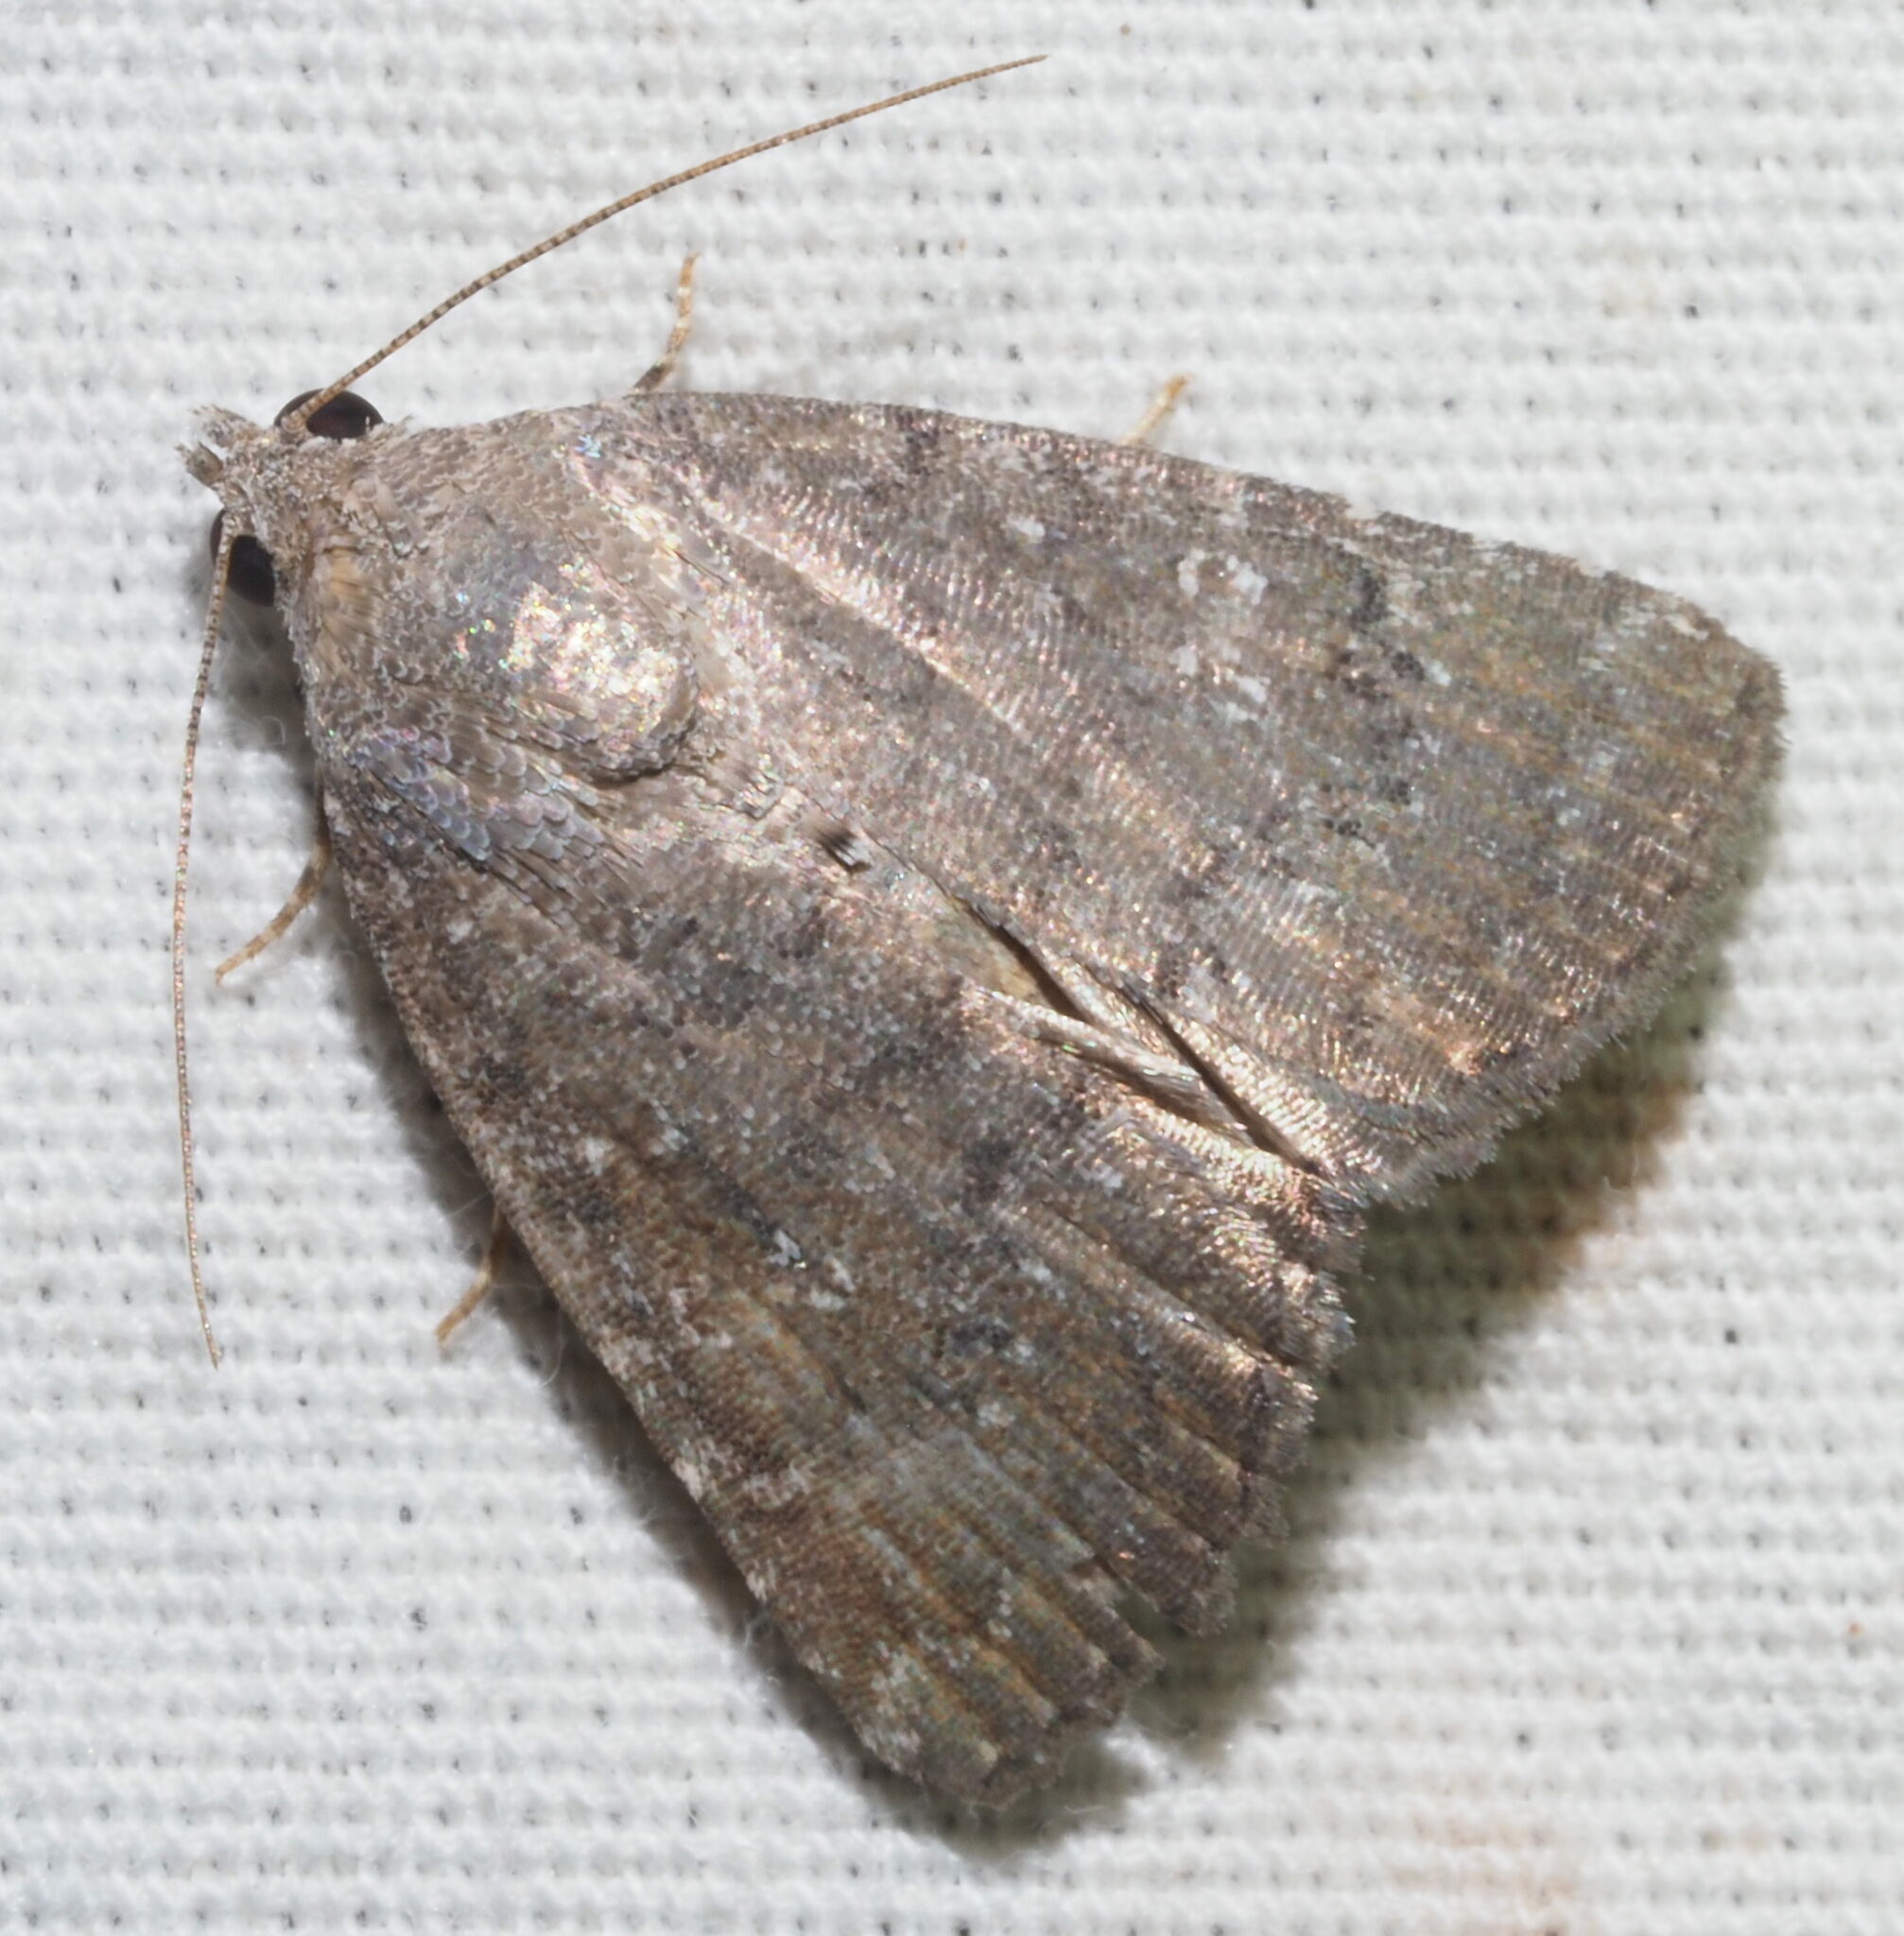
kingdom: Animalia
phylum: Arthropoda
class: Insecta
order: Lepidoptera
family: Noctuidae
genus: Amyna
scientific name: Amyna natalis
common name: Iiima moth
